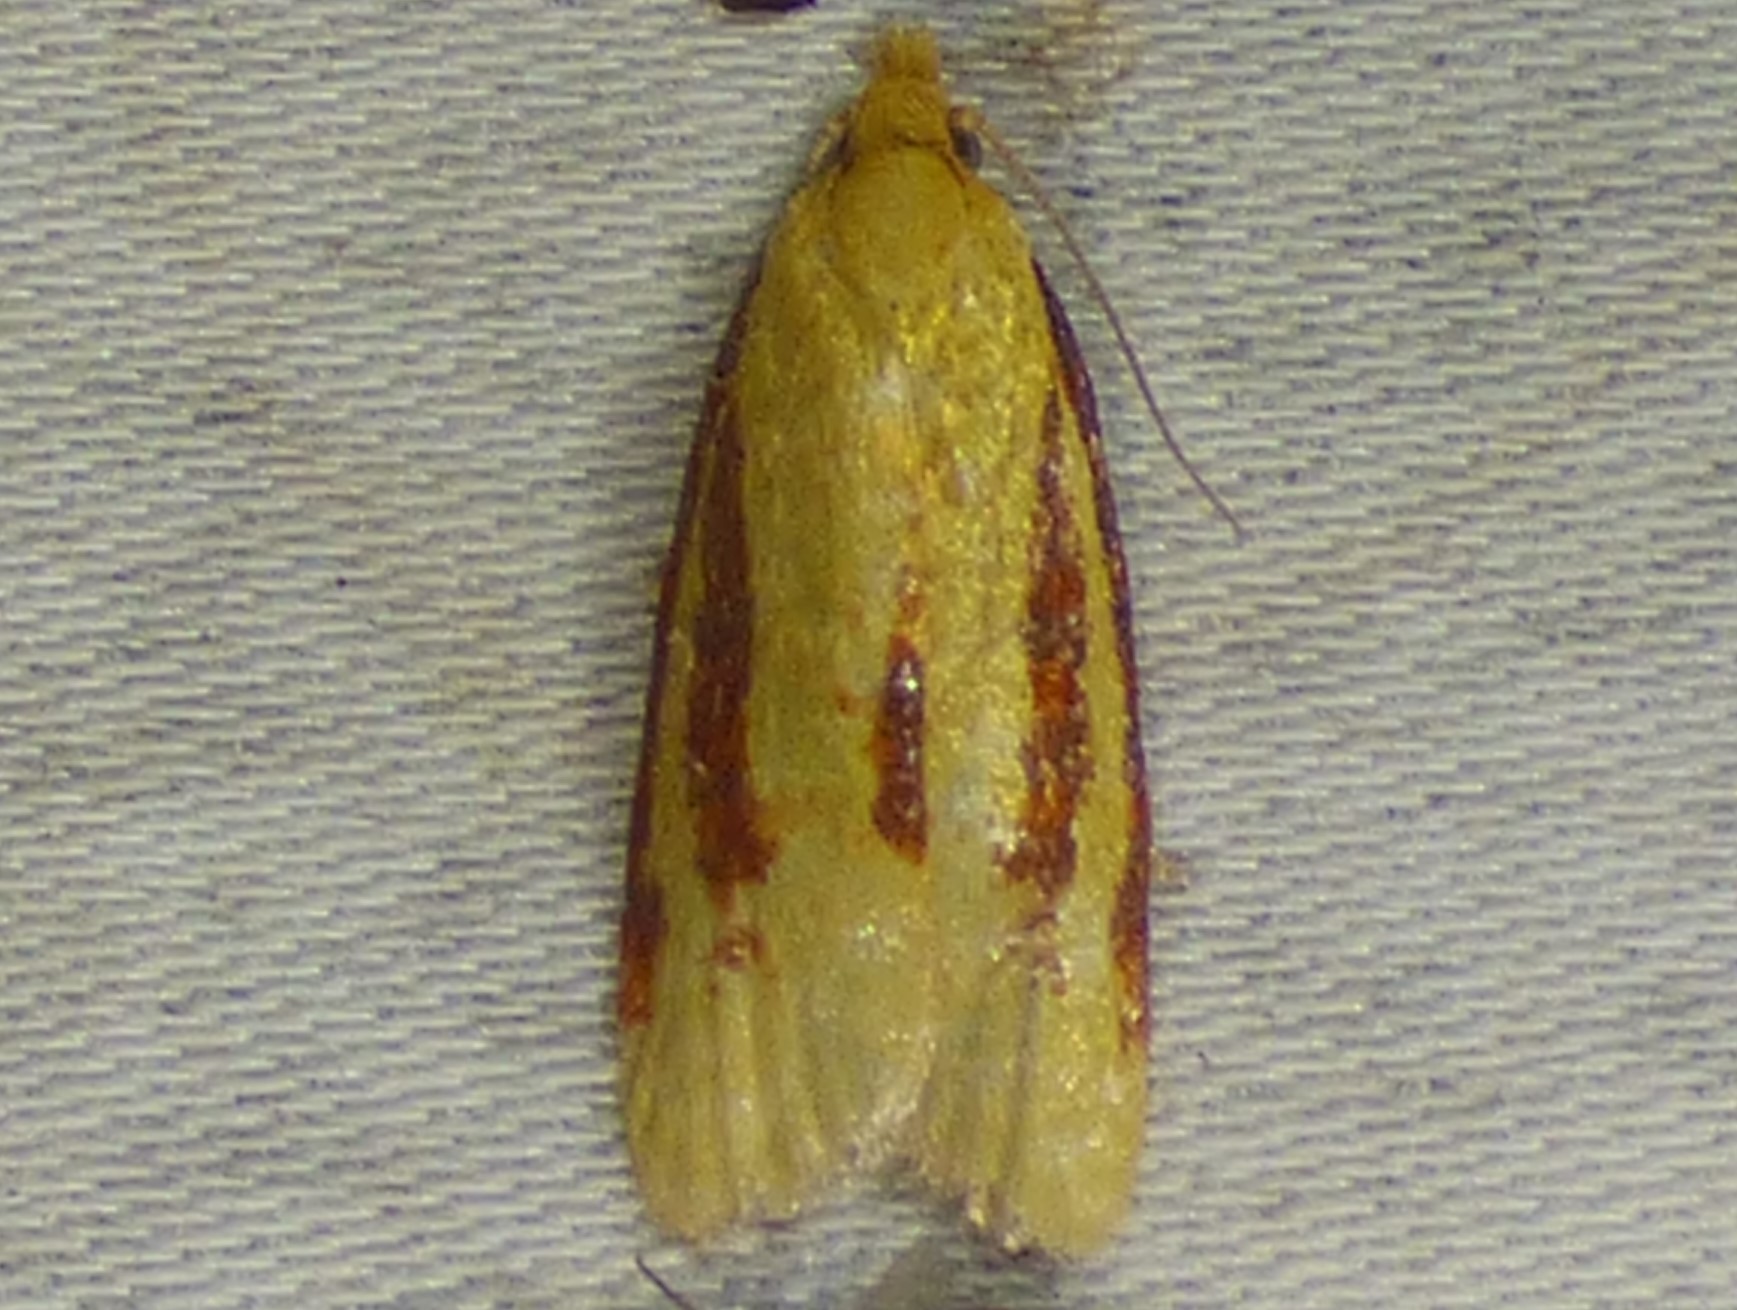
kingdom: Animalia
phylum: Arthropoda
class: Insecta
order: Lepidoptera
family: Tortricidae
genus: Sparganothis
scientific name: Sparganothis bistriata
